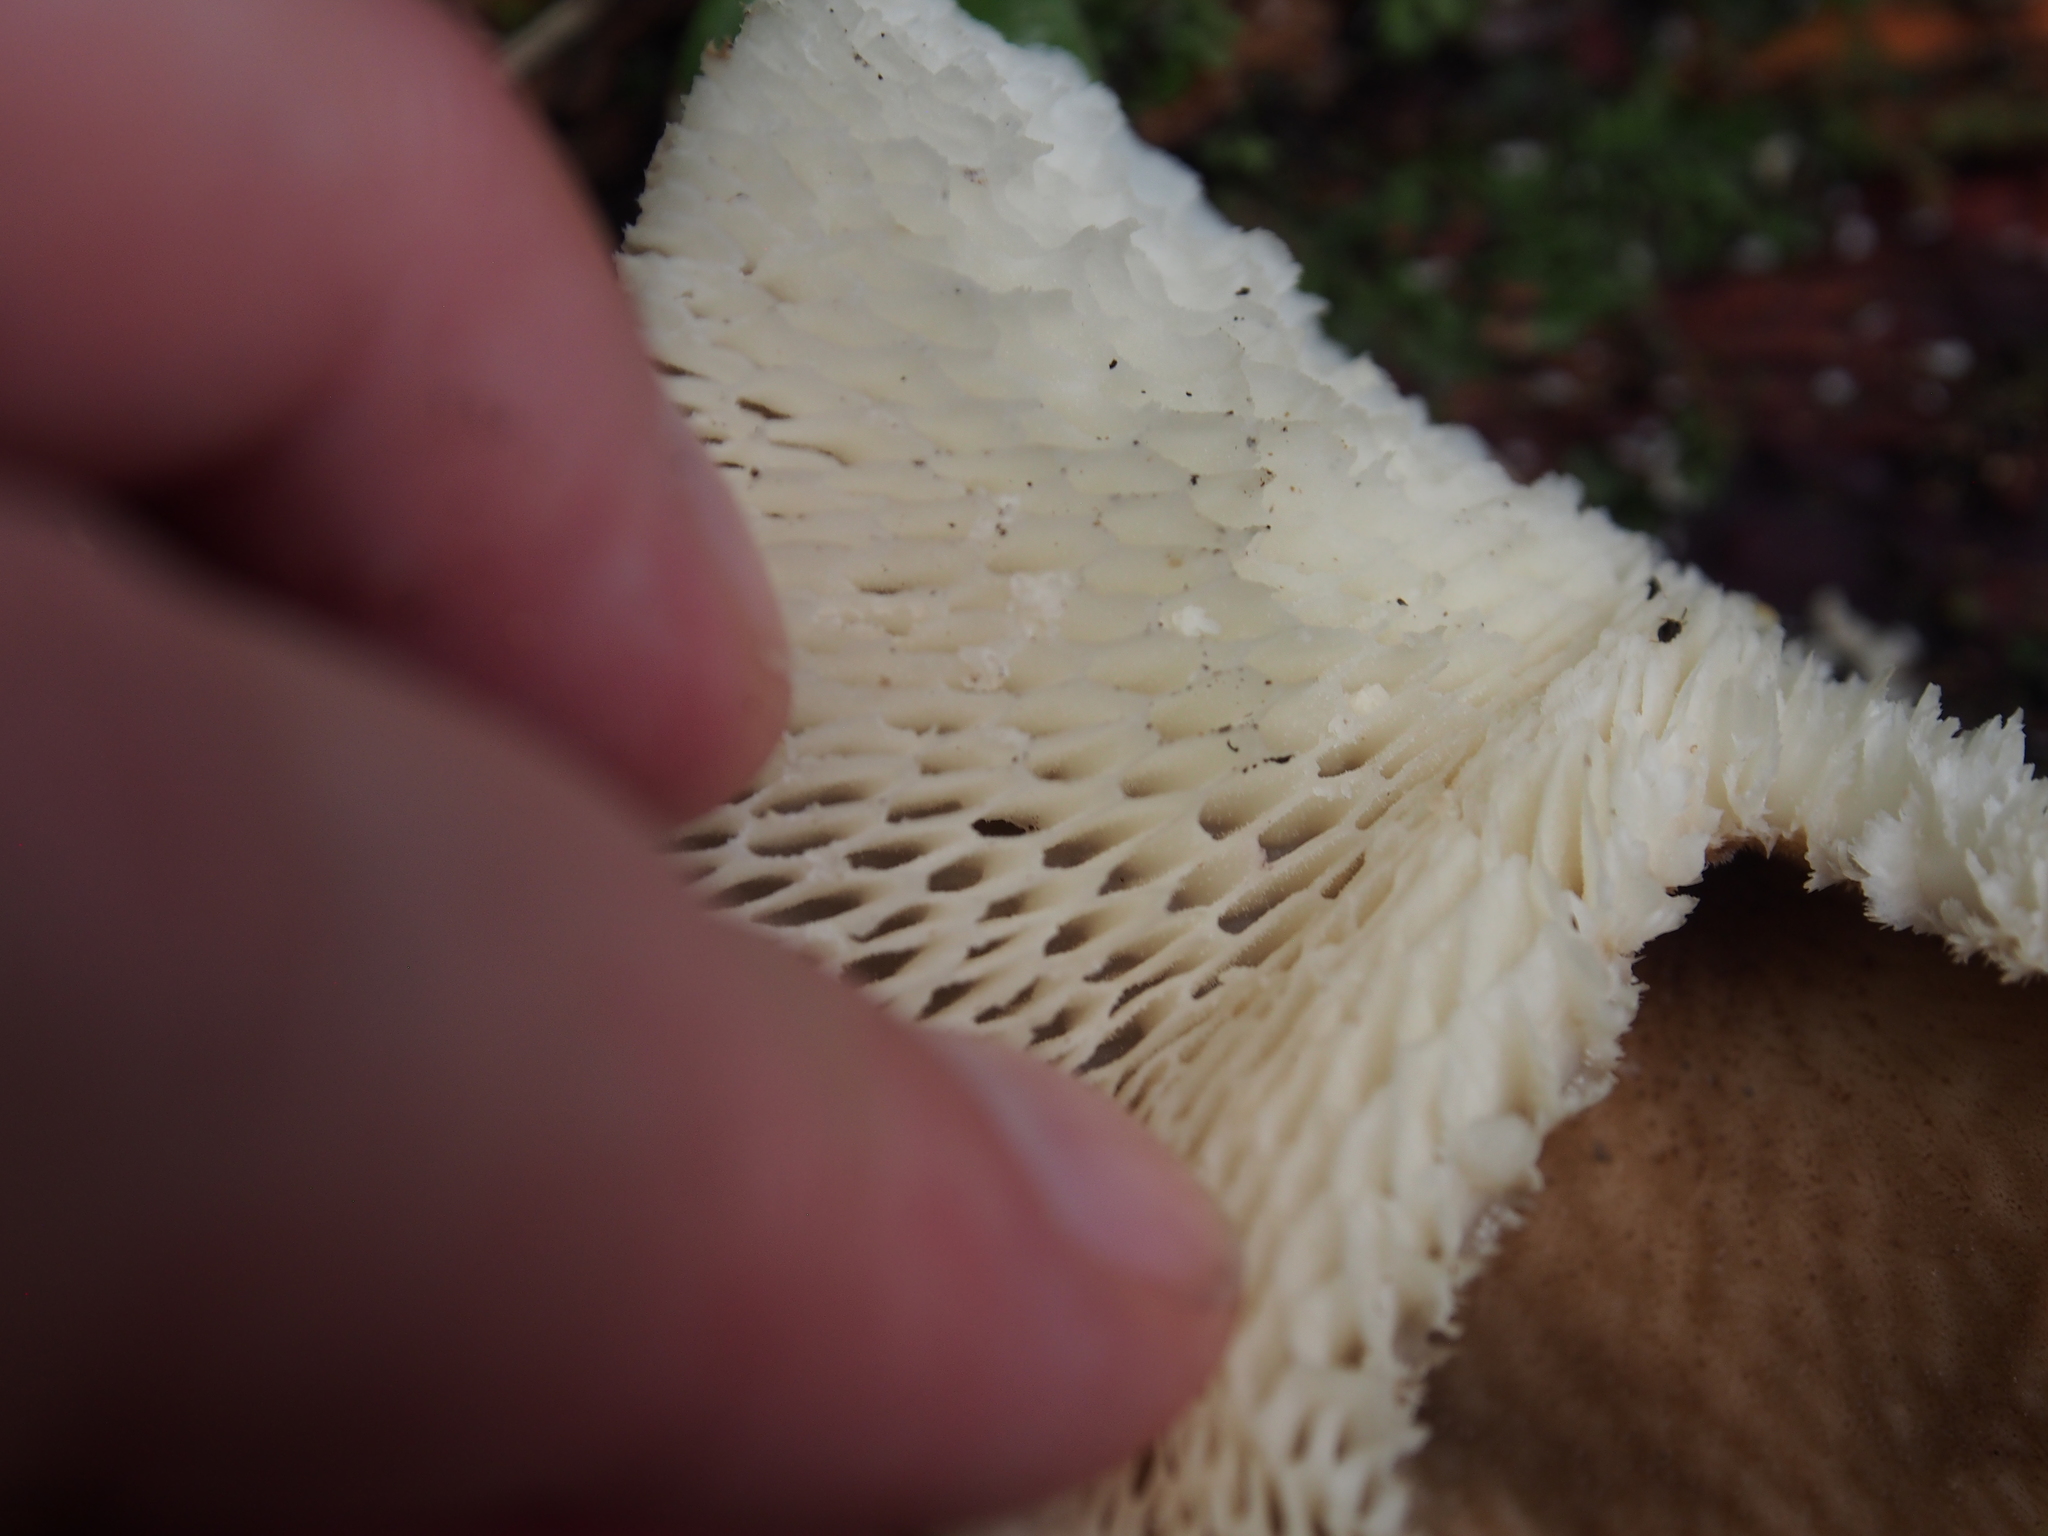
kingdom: Fungi
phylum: Basidiomycota
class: Agaricomycetes
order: Polyporales
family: Polyporaceae
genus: Favolus
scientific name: Favolus tenuiculus
